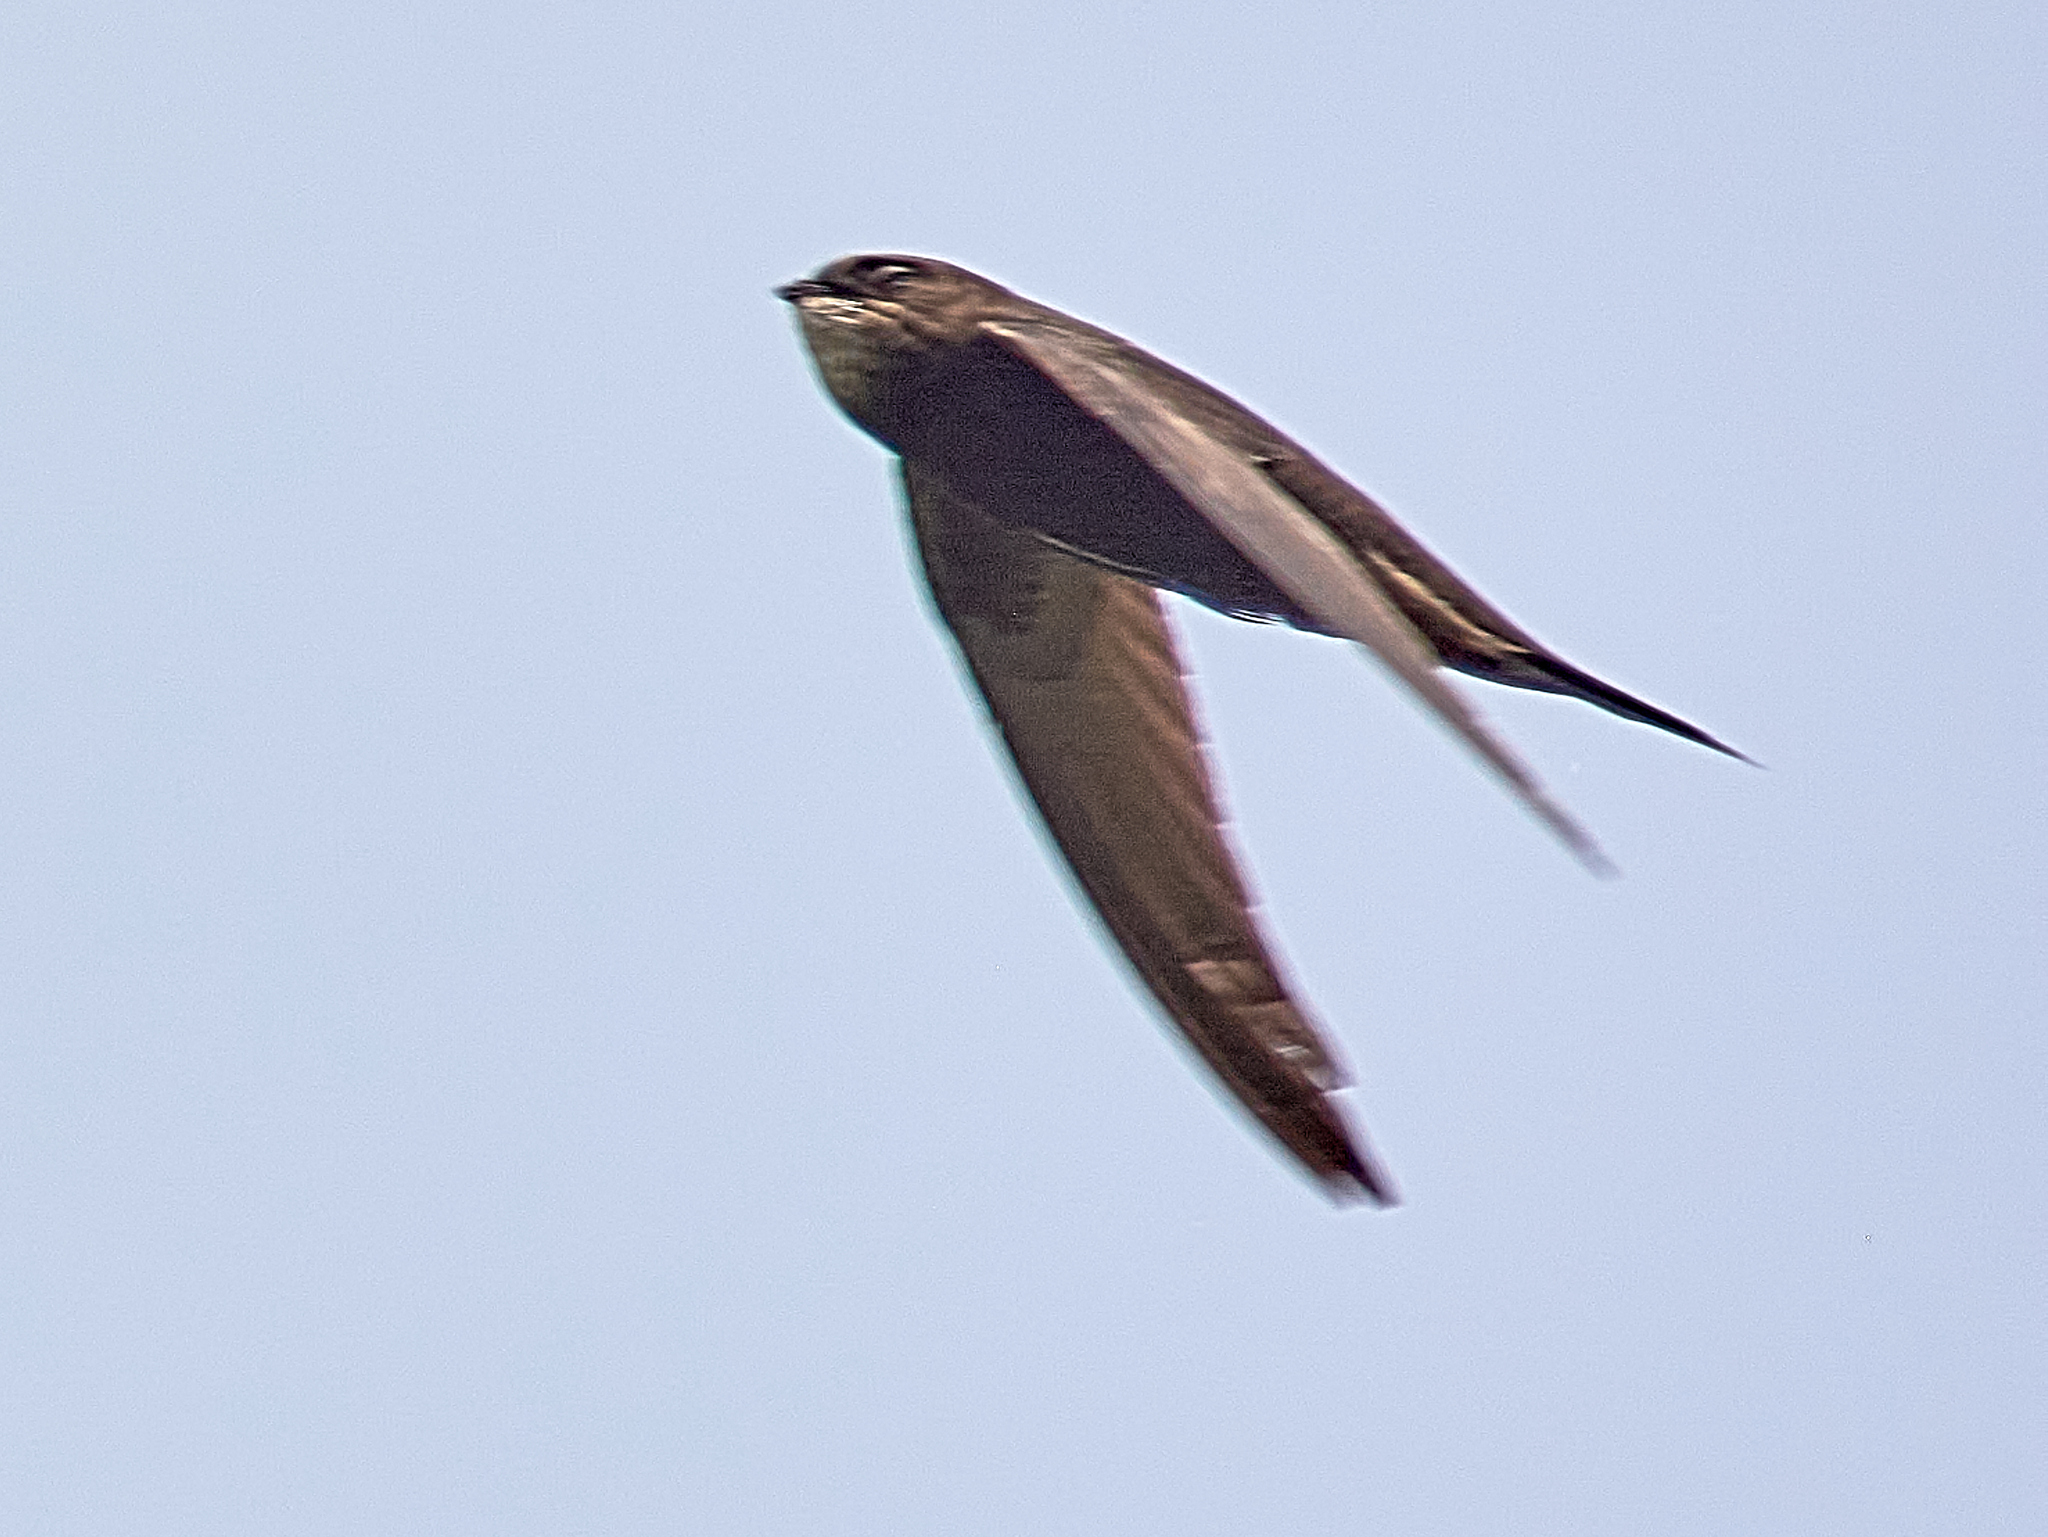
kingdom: Animalia
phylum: Chordata
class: Aves
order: Apodiformes
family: Apodidae
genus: Apus
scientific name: Apus apus
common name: Common swift
